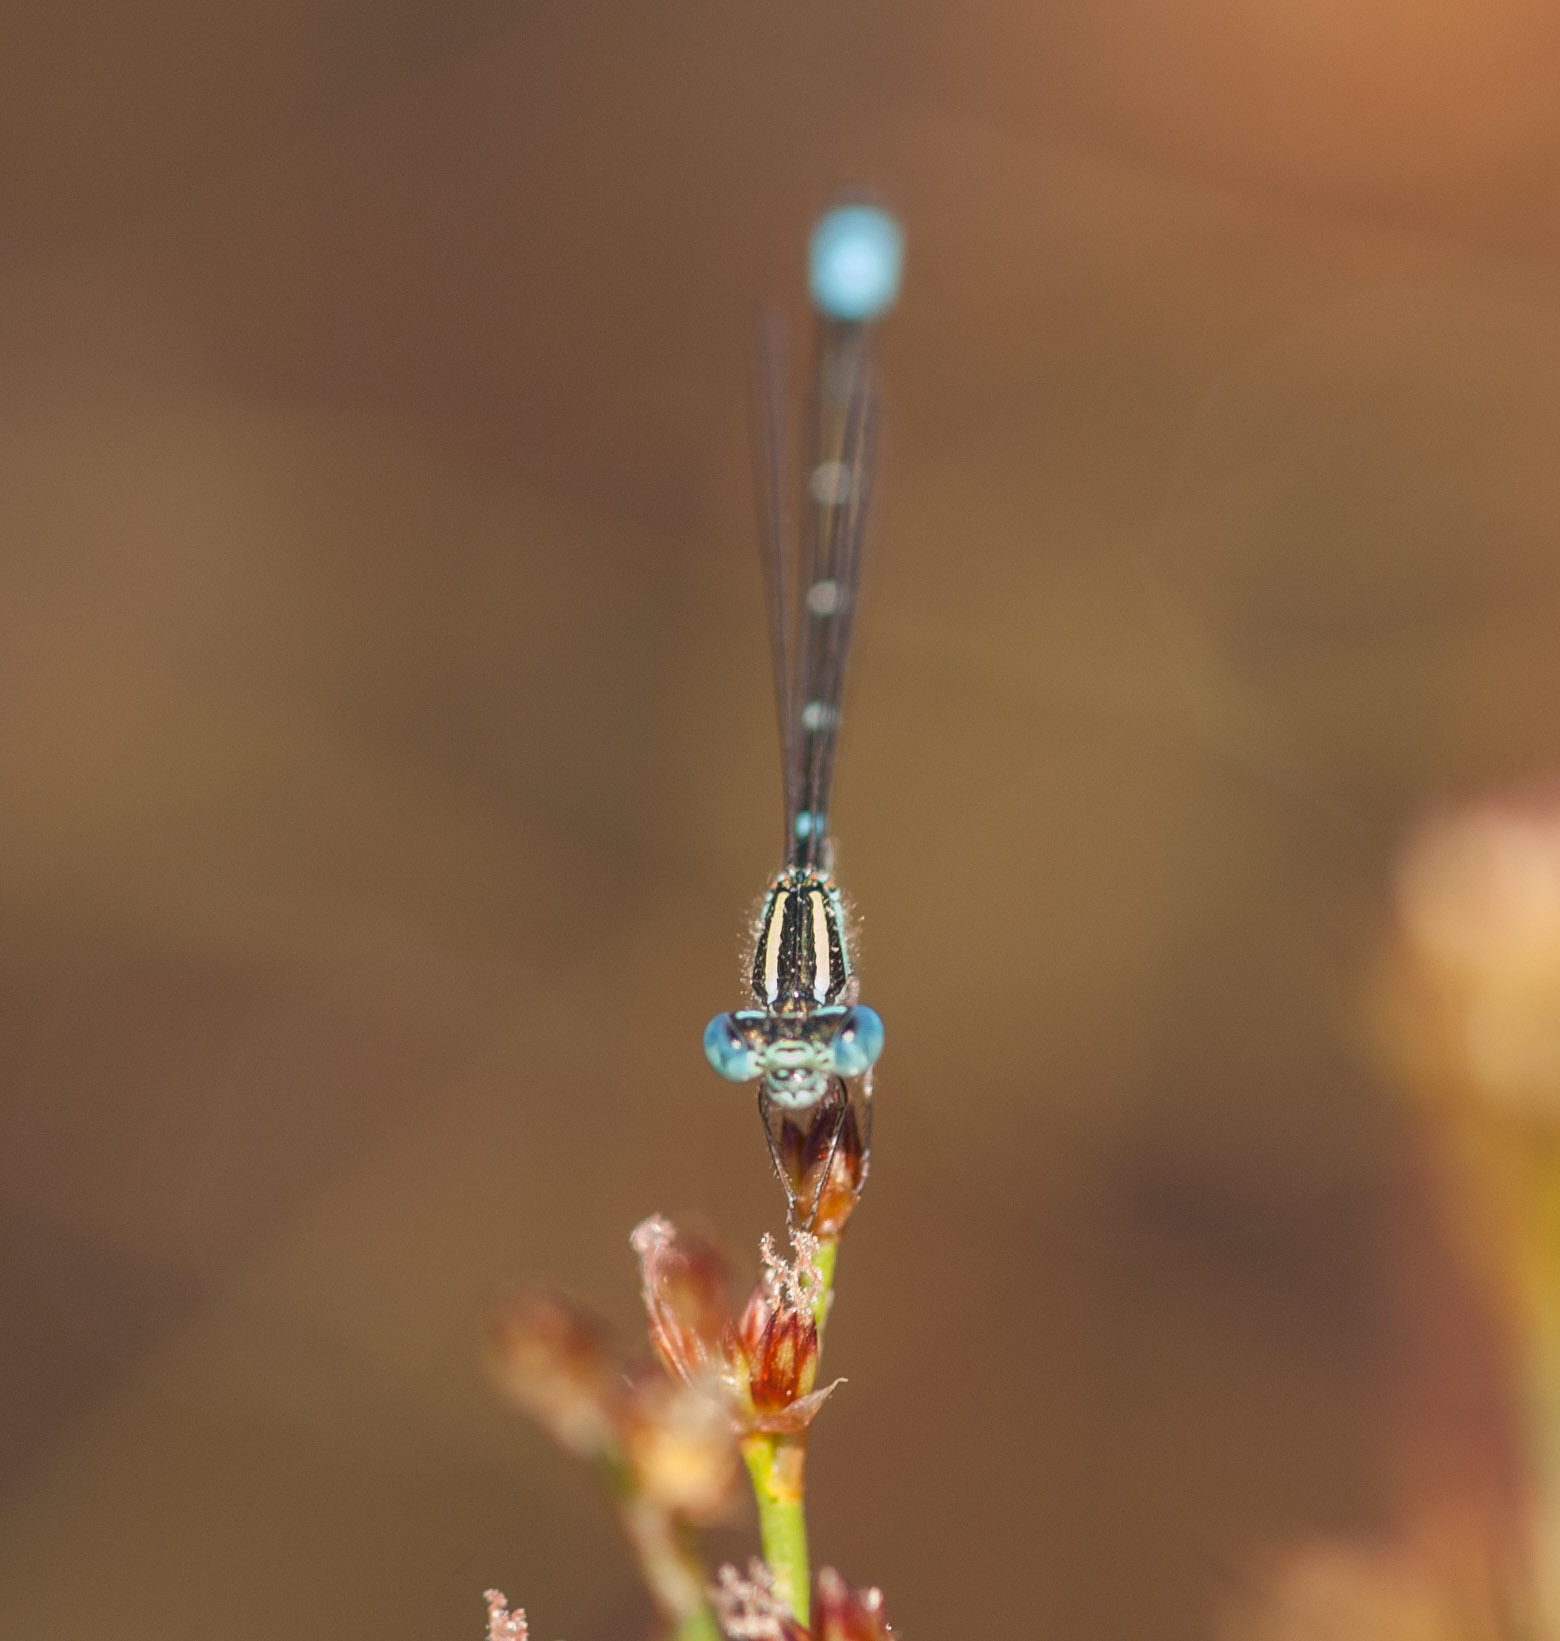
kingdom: Animalia
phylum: Arthropoda
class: Insecta
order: Odonata
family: Coenagrionidae
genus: Austroagrion
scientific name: Austroagrion watsoni
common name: Eastern billabongfly
